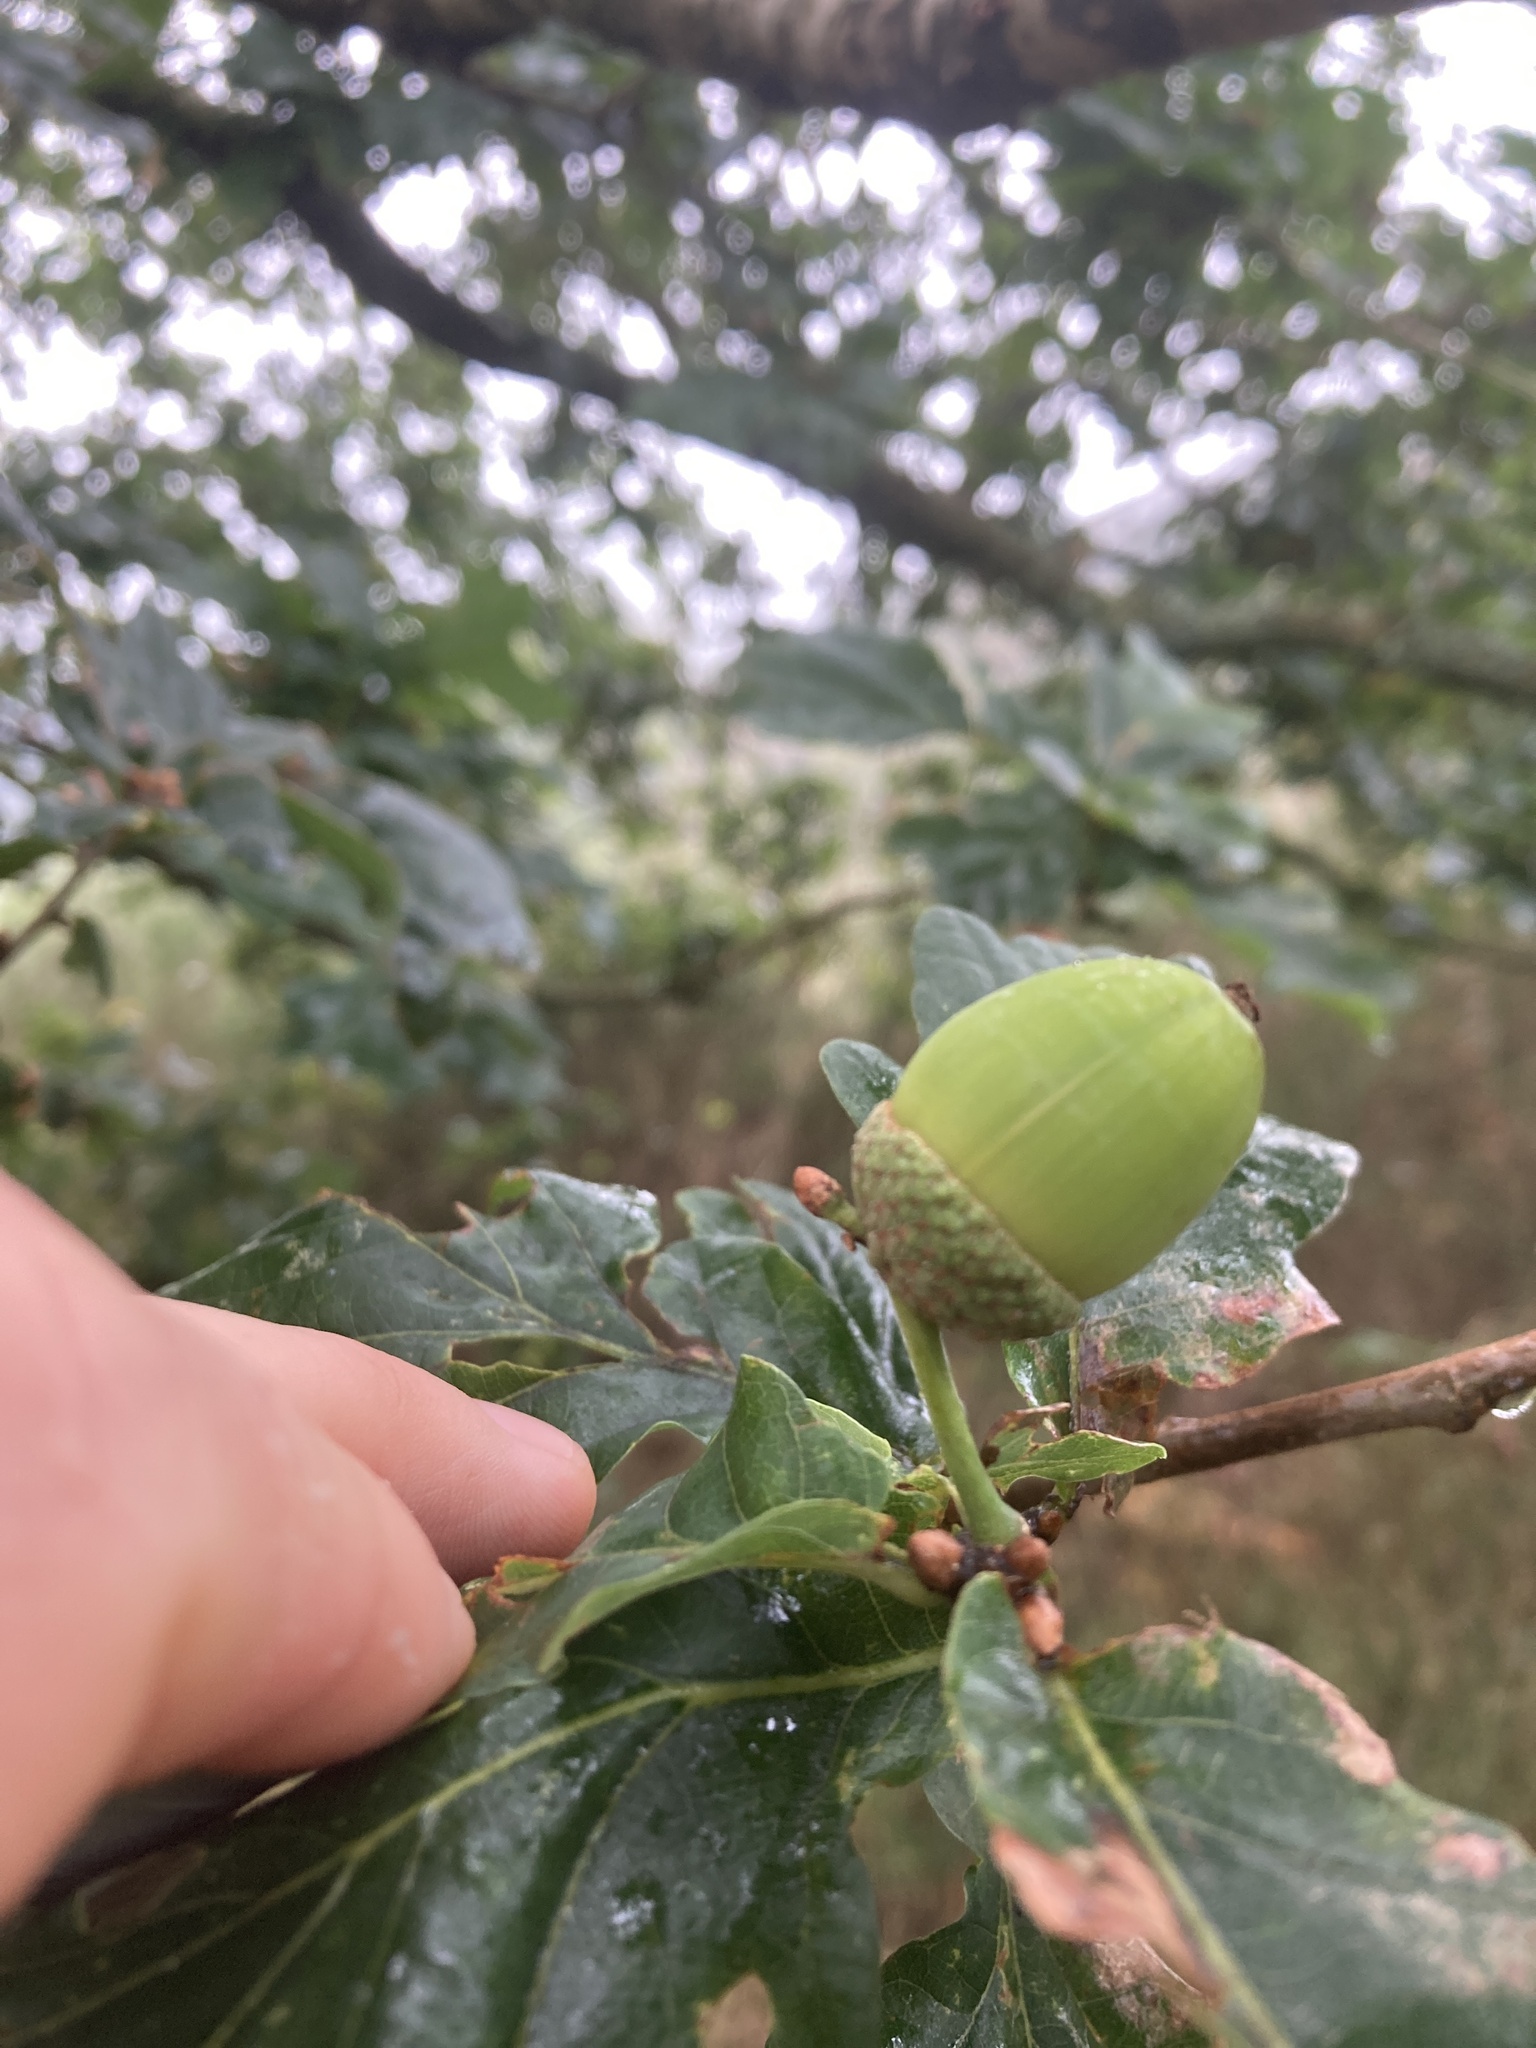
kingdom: Plantae
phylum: Tracheophyta
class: Magnoliopsida
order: Fagales
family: Fagaceae
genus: Quercus
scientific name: Quercus robur
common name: Pedunculate oak
